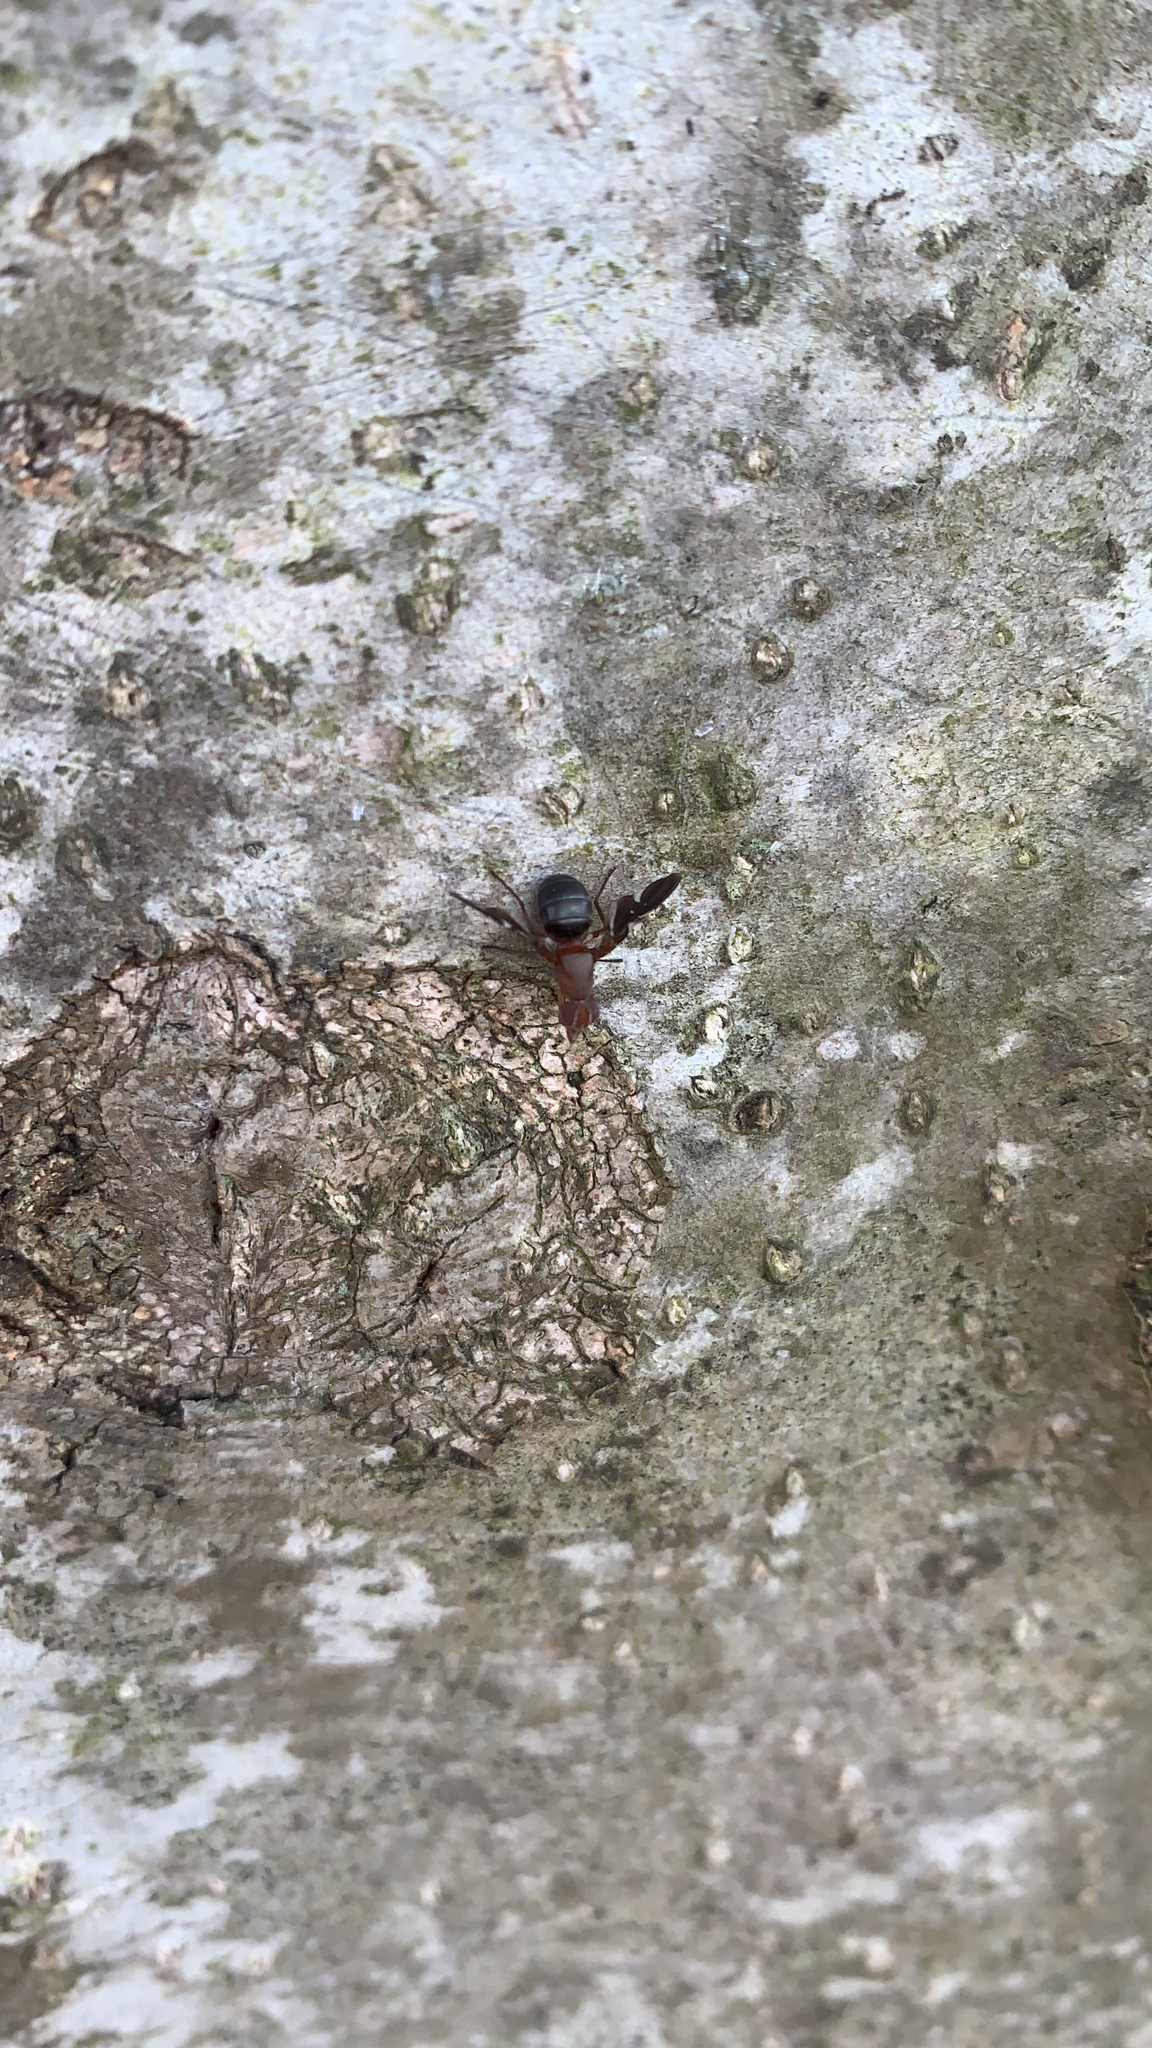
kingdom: Animalia
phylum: Arthropoda
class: Insecta
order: Diptera
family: Ulidiidae
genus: Delphinia
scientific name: Delphinia picta
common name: Common picture-winged fly
